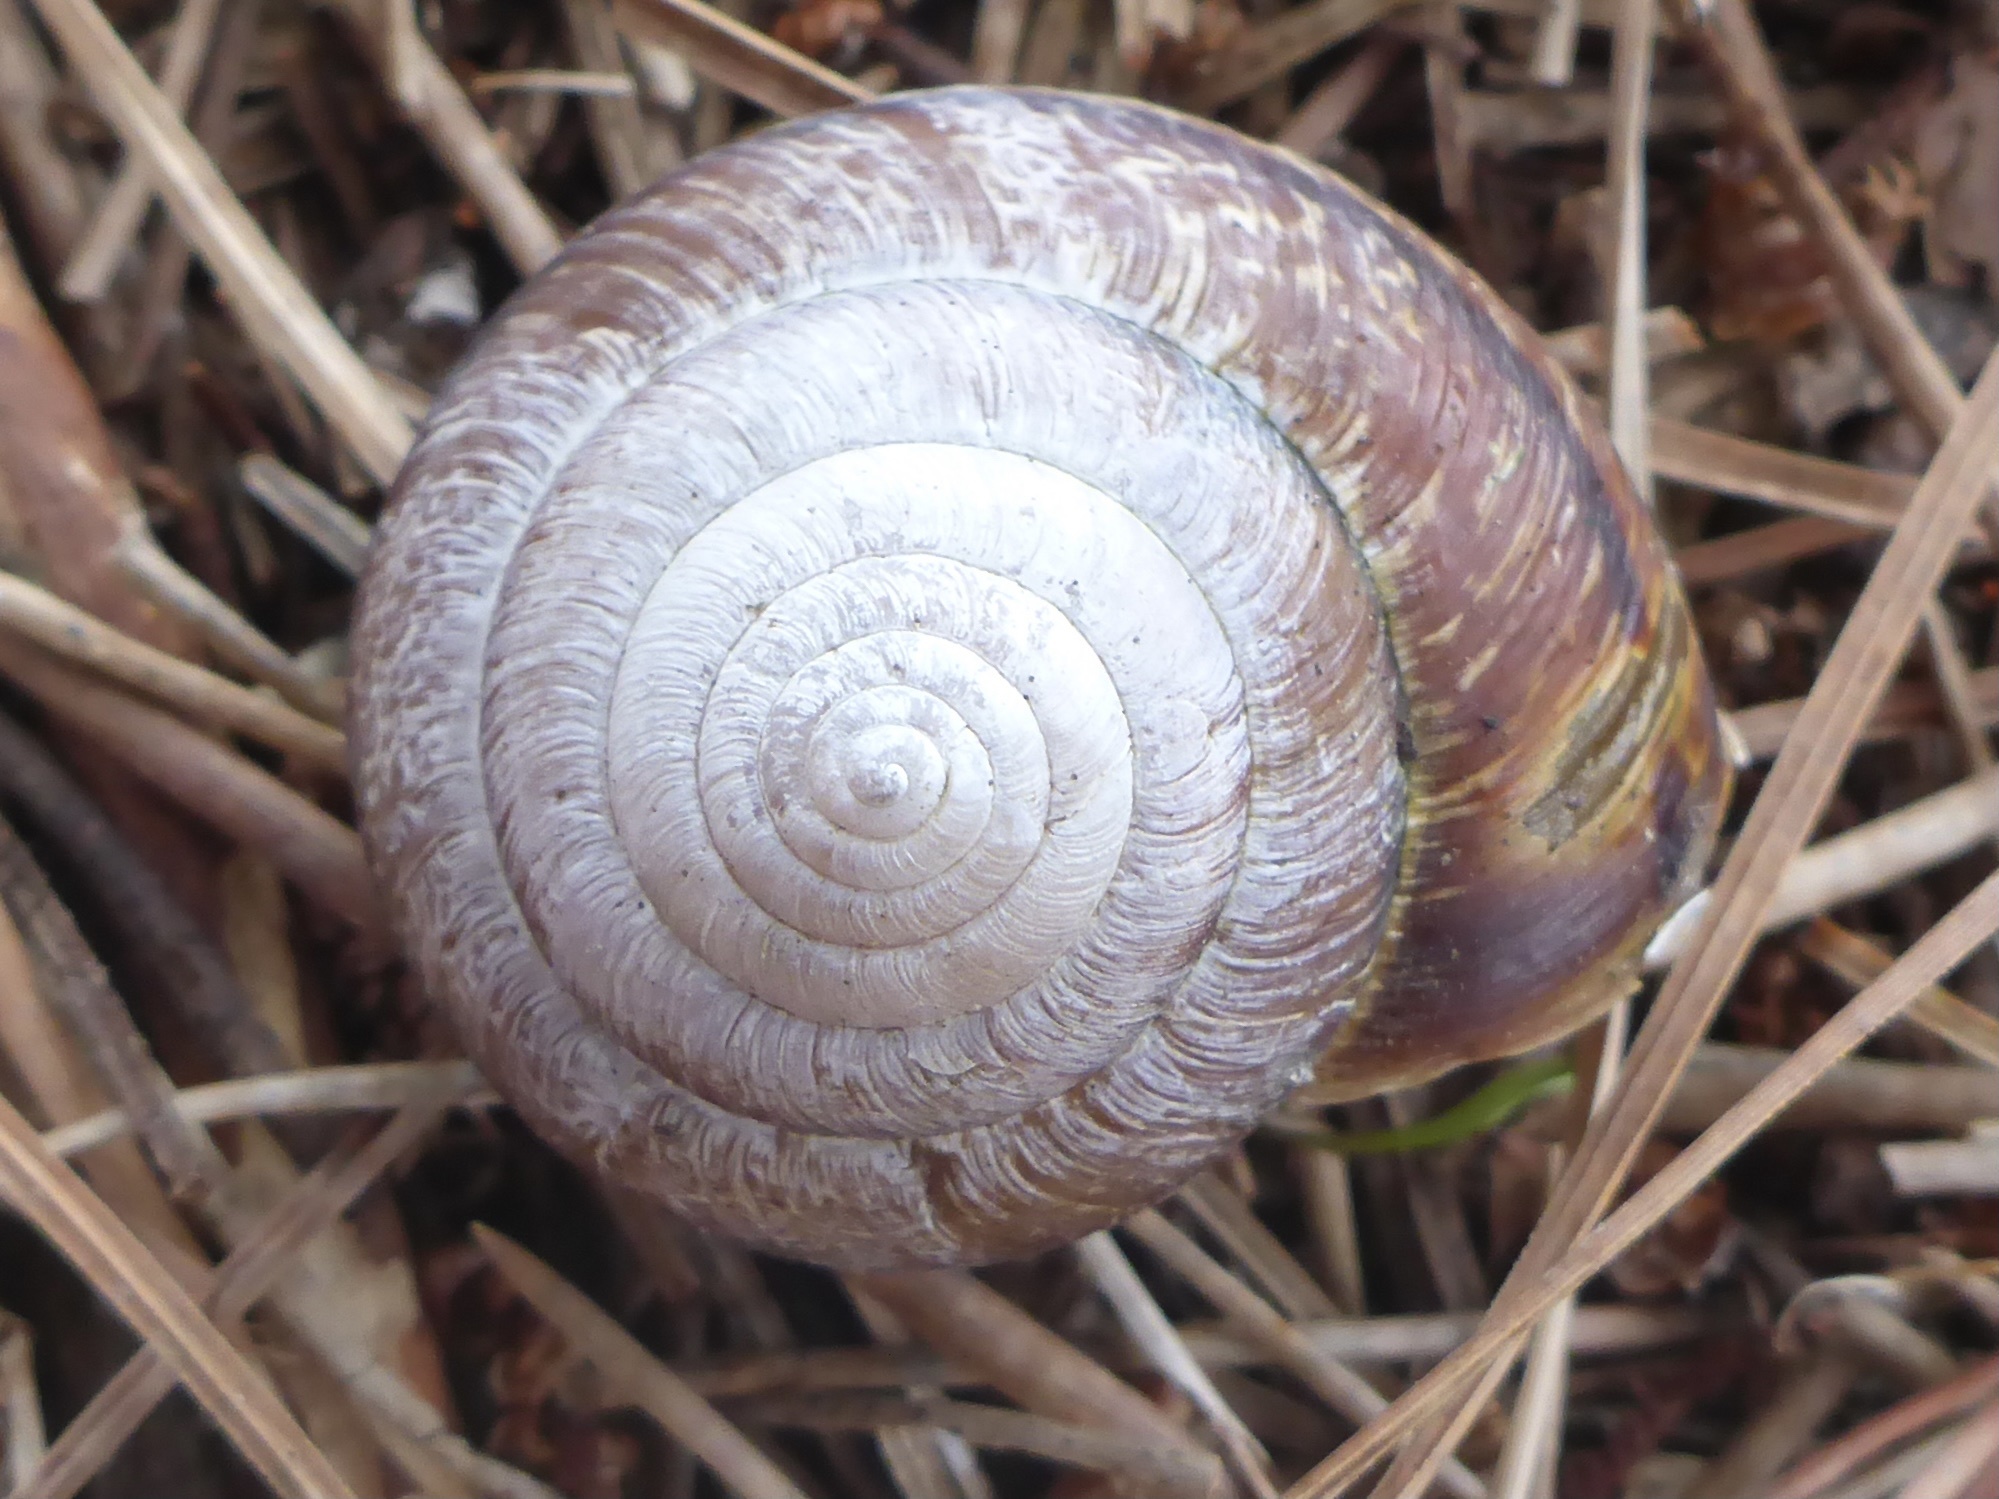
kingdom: Animalia
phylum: Mollusca
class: Gastropoda
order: Stylommatophora
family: Xanthonychidae
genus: Helminthoglypta
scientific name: Helminthoglypta arrosa
